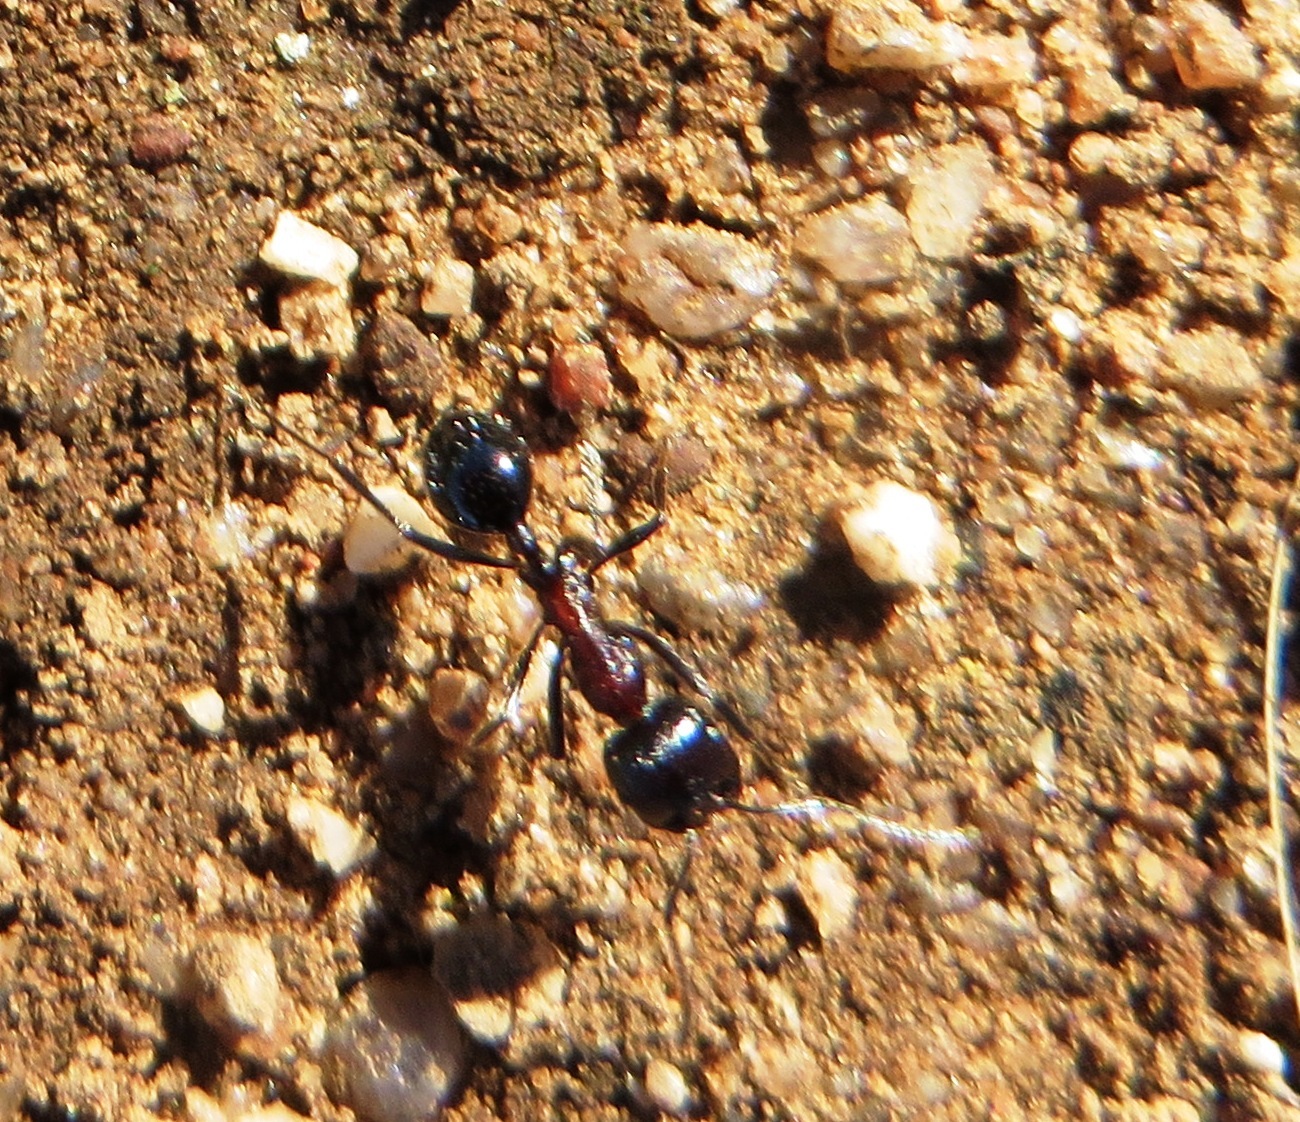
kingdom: Animalia
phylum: Arthropoda
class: Insecta
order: Hymenoptera
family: Formicidae
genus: Messor
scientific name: Messor capensis
